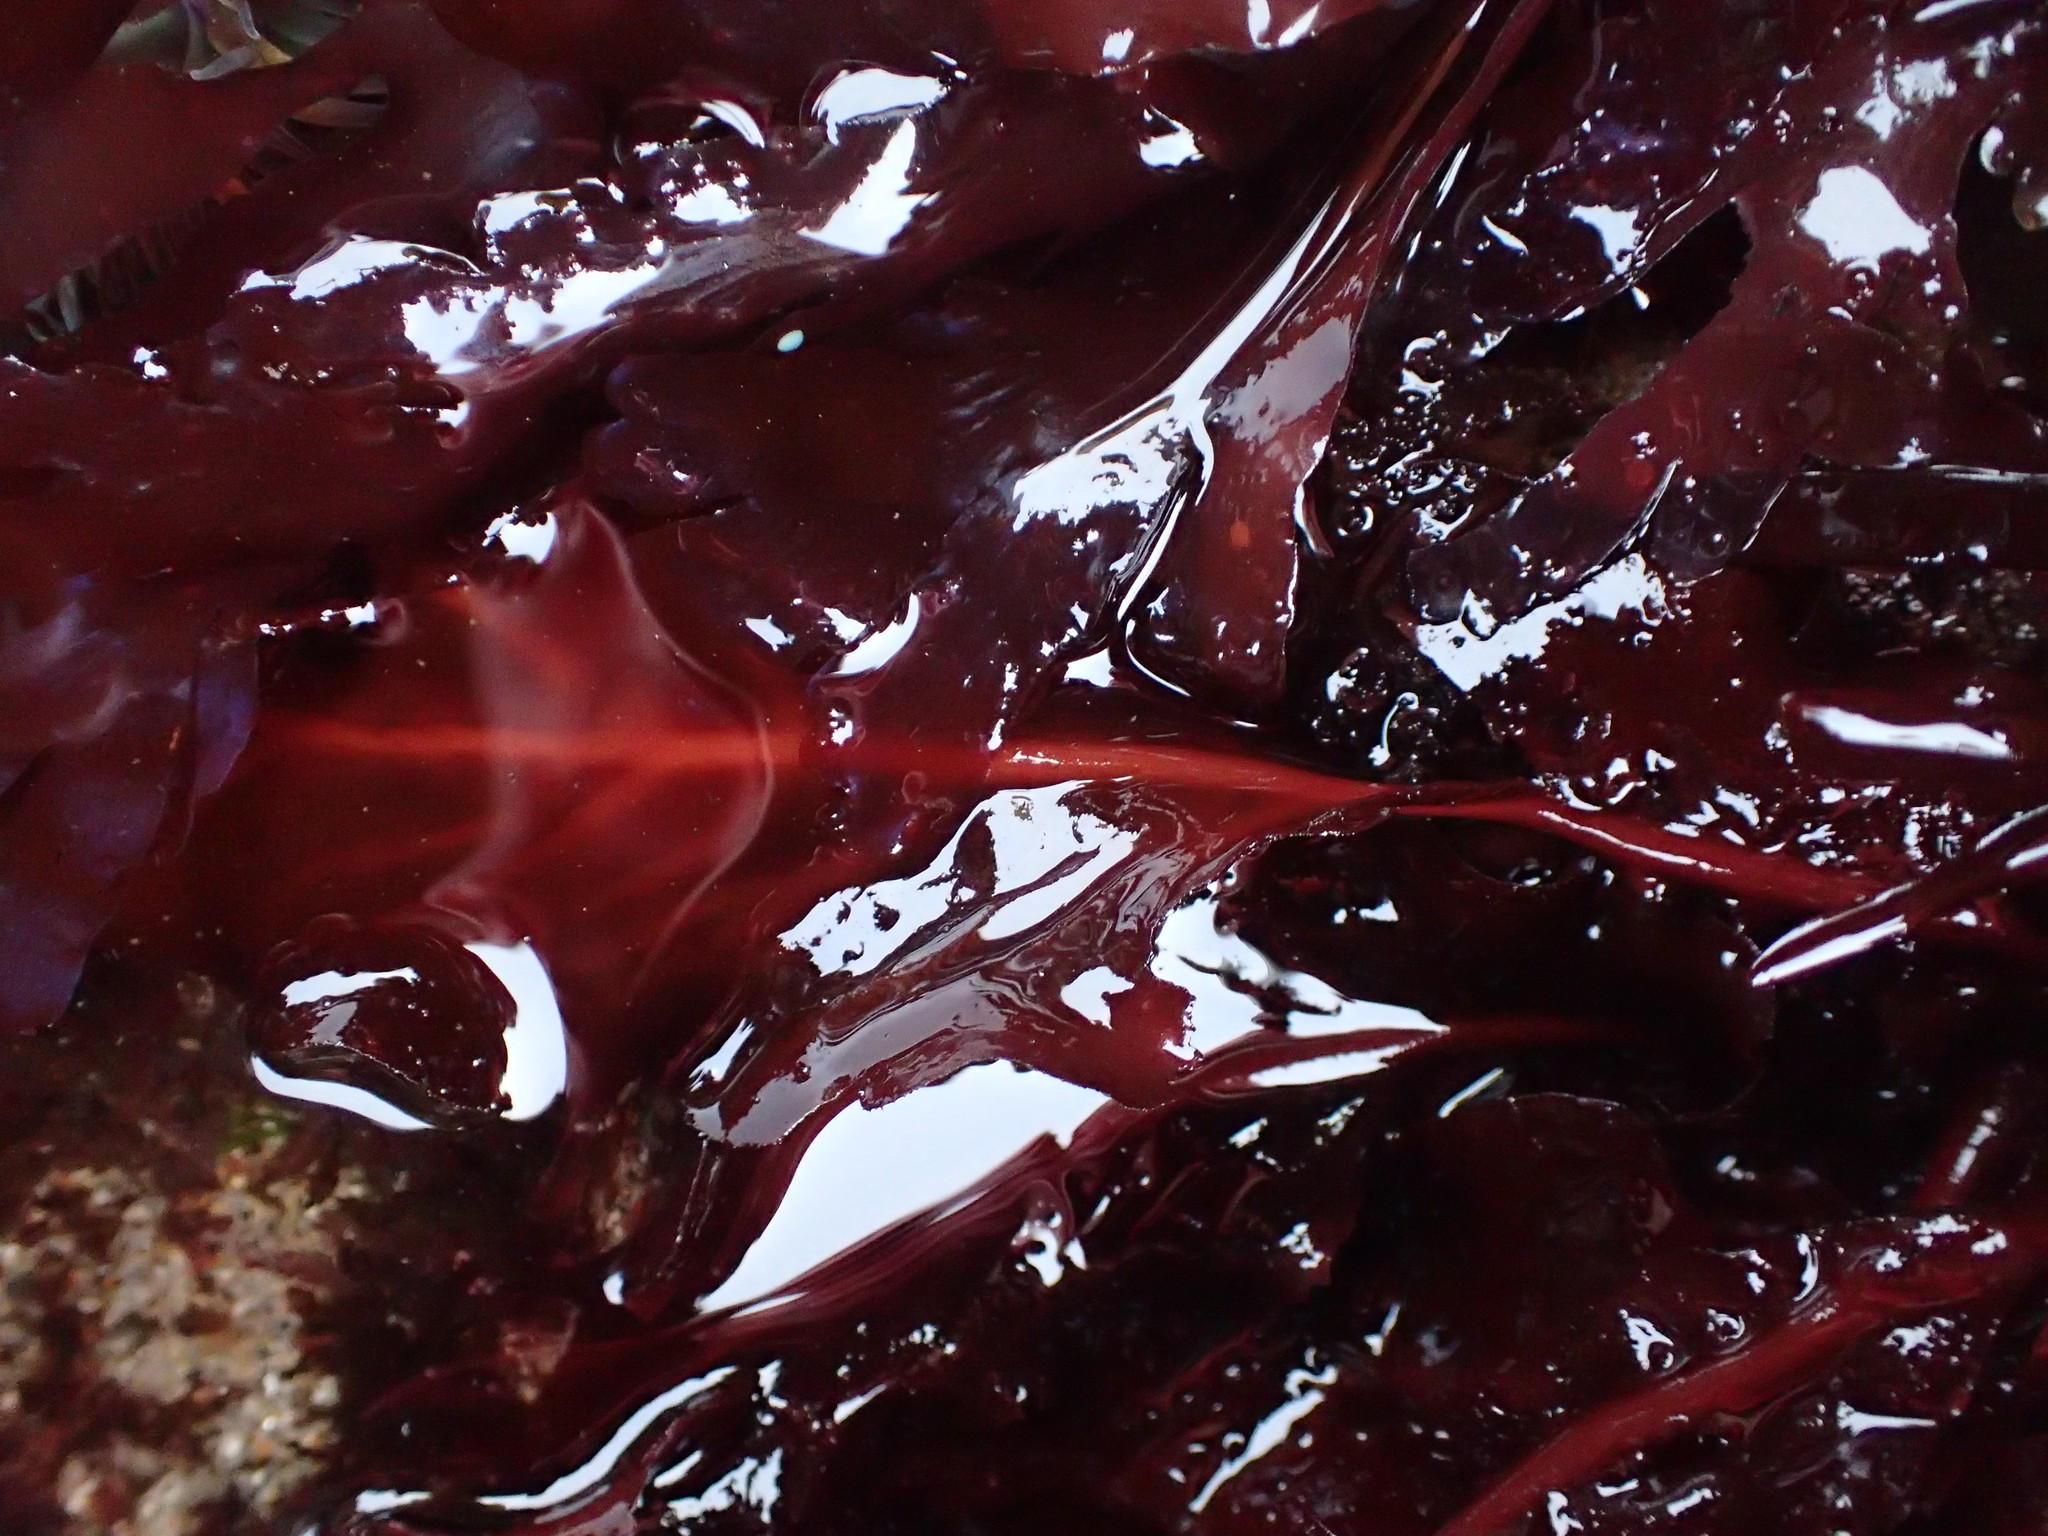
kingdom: Plantae
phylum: Rhodophyta
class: Florideophyceae
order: Gigartinales
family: Kallymeniaceae
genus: Erythrophyllum
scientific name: Erythrophyllum delesserioides
